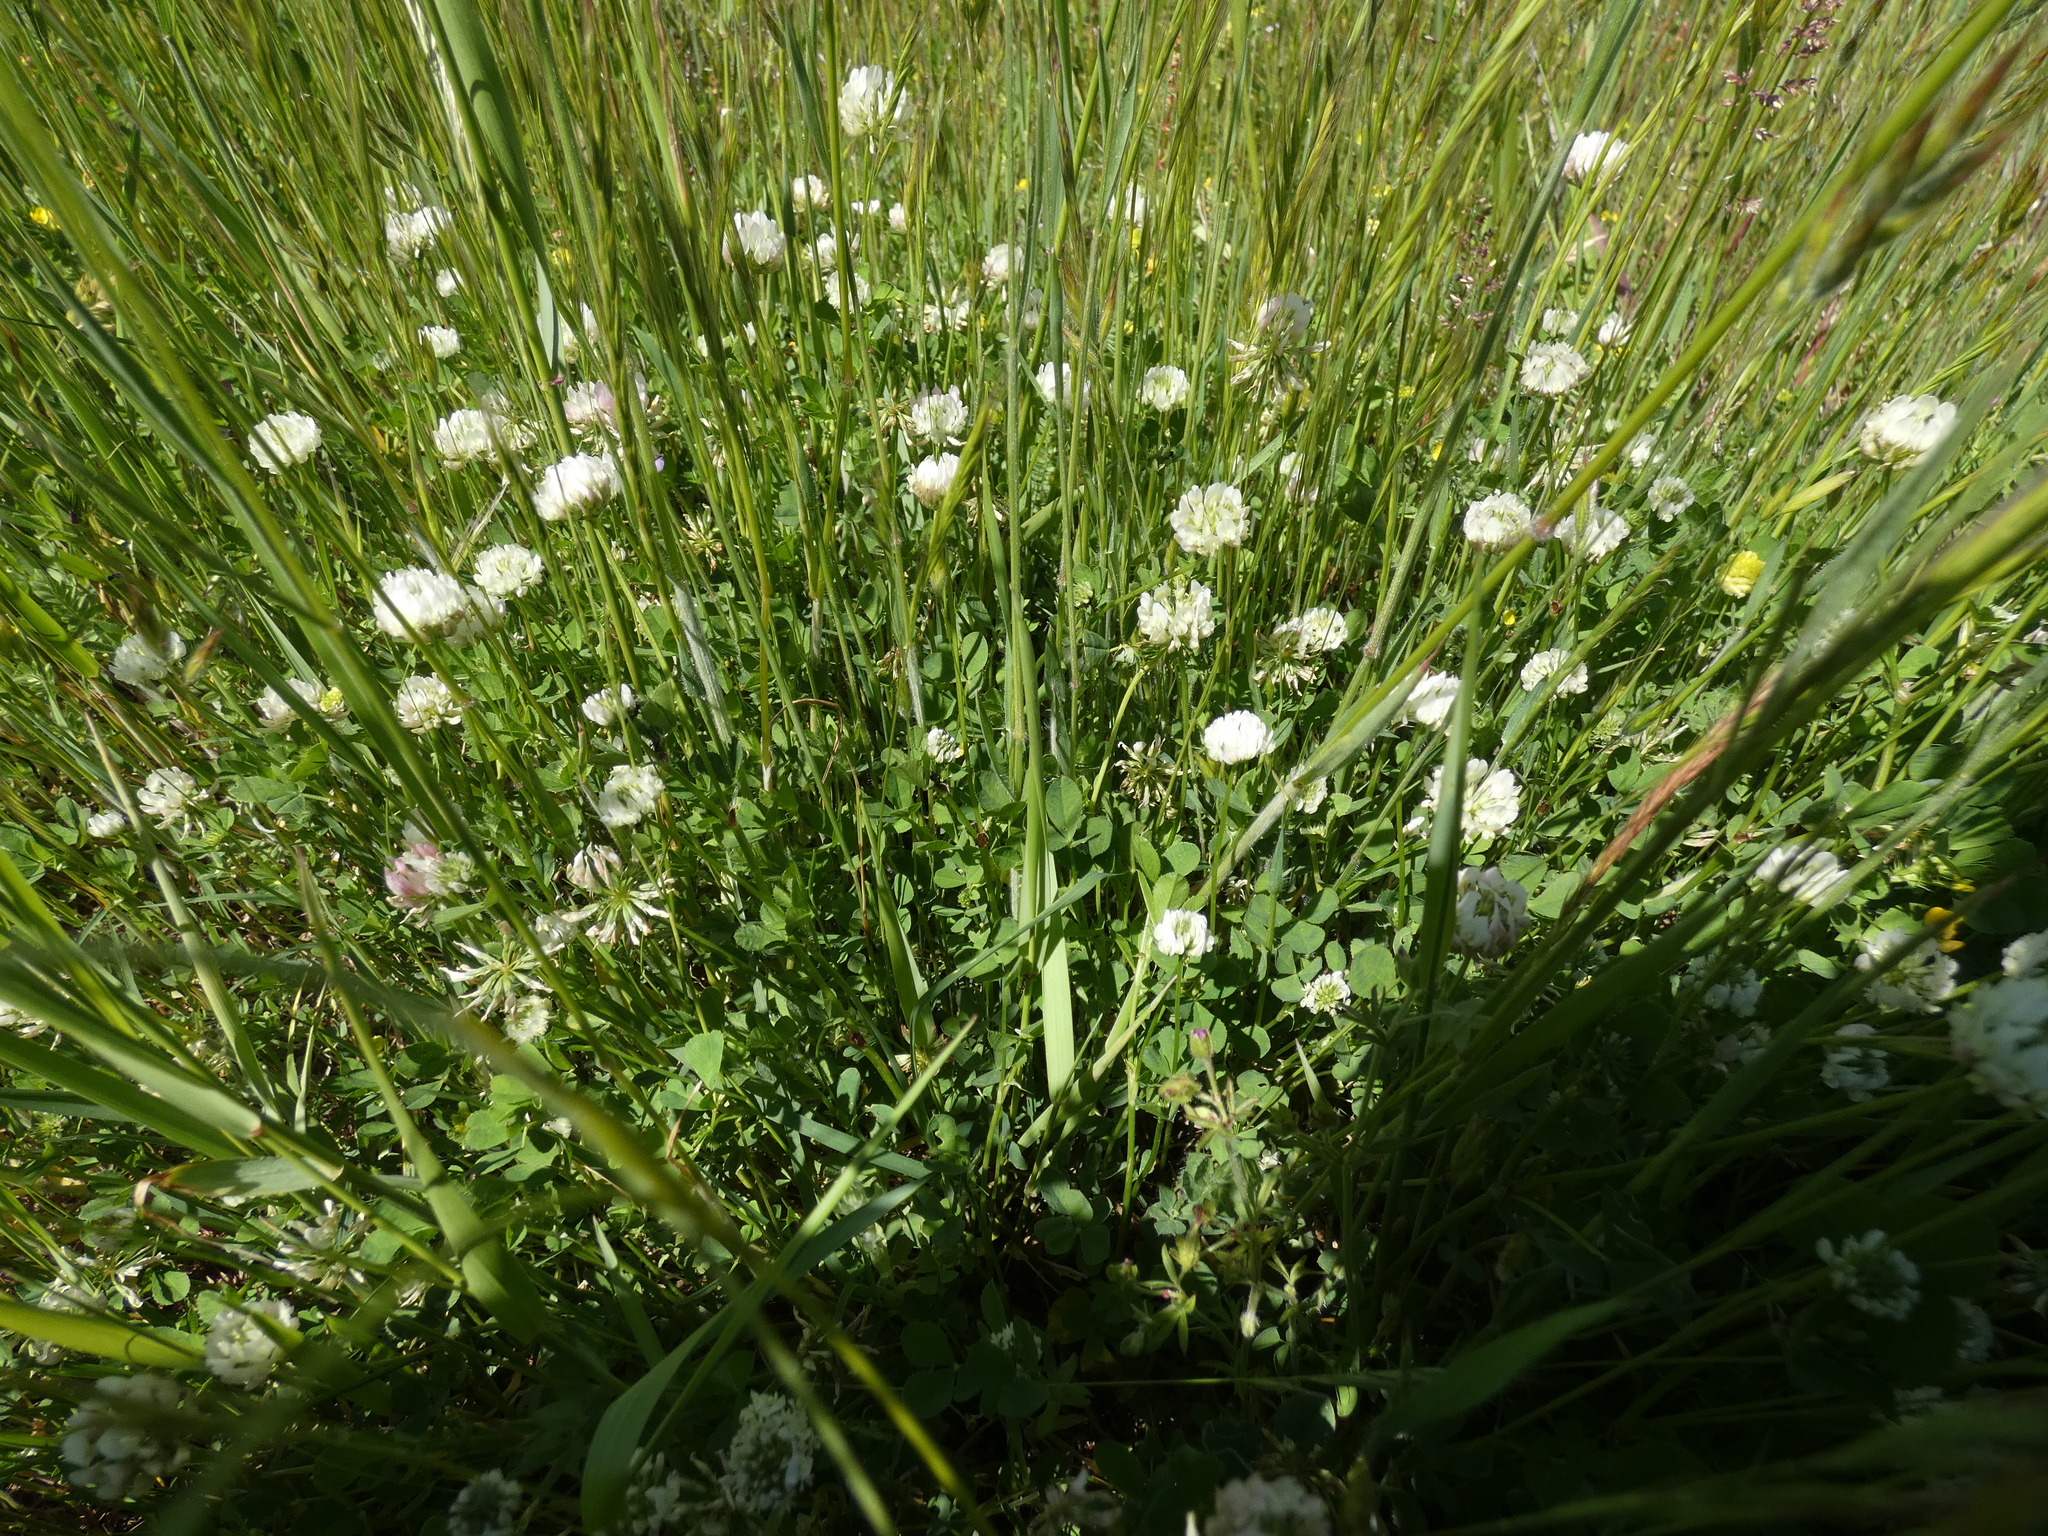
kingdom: Plantae
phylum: Tracheophyta
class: Magnoliopsida
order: Fabales
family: Fabaceae
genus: Trifolium
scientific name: Trifolium nigrescens
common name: Small white clover
